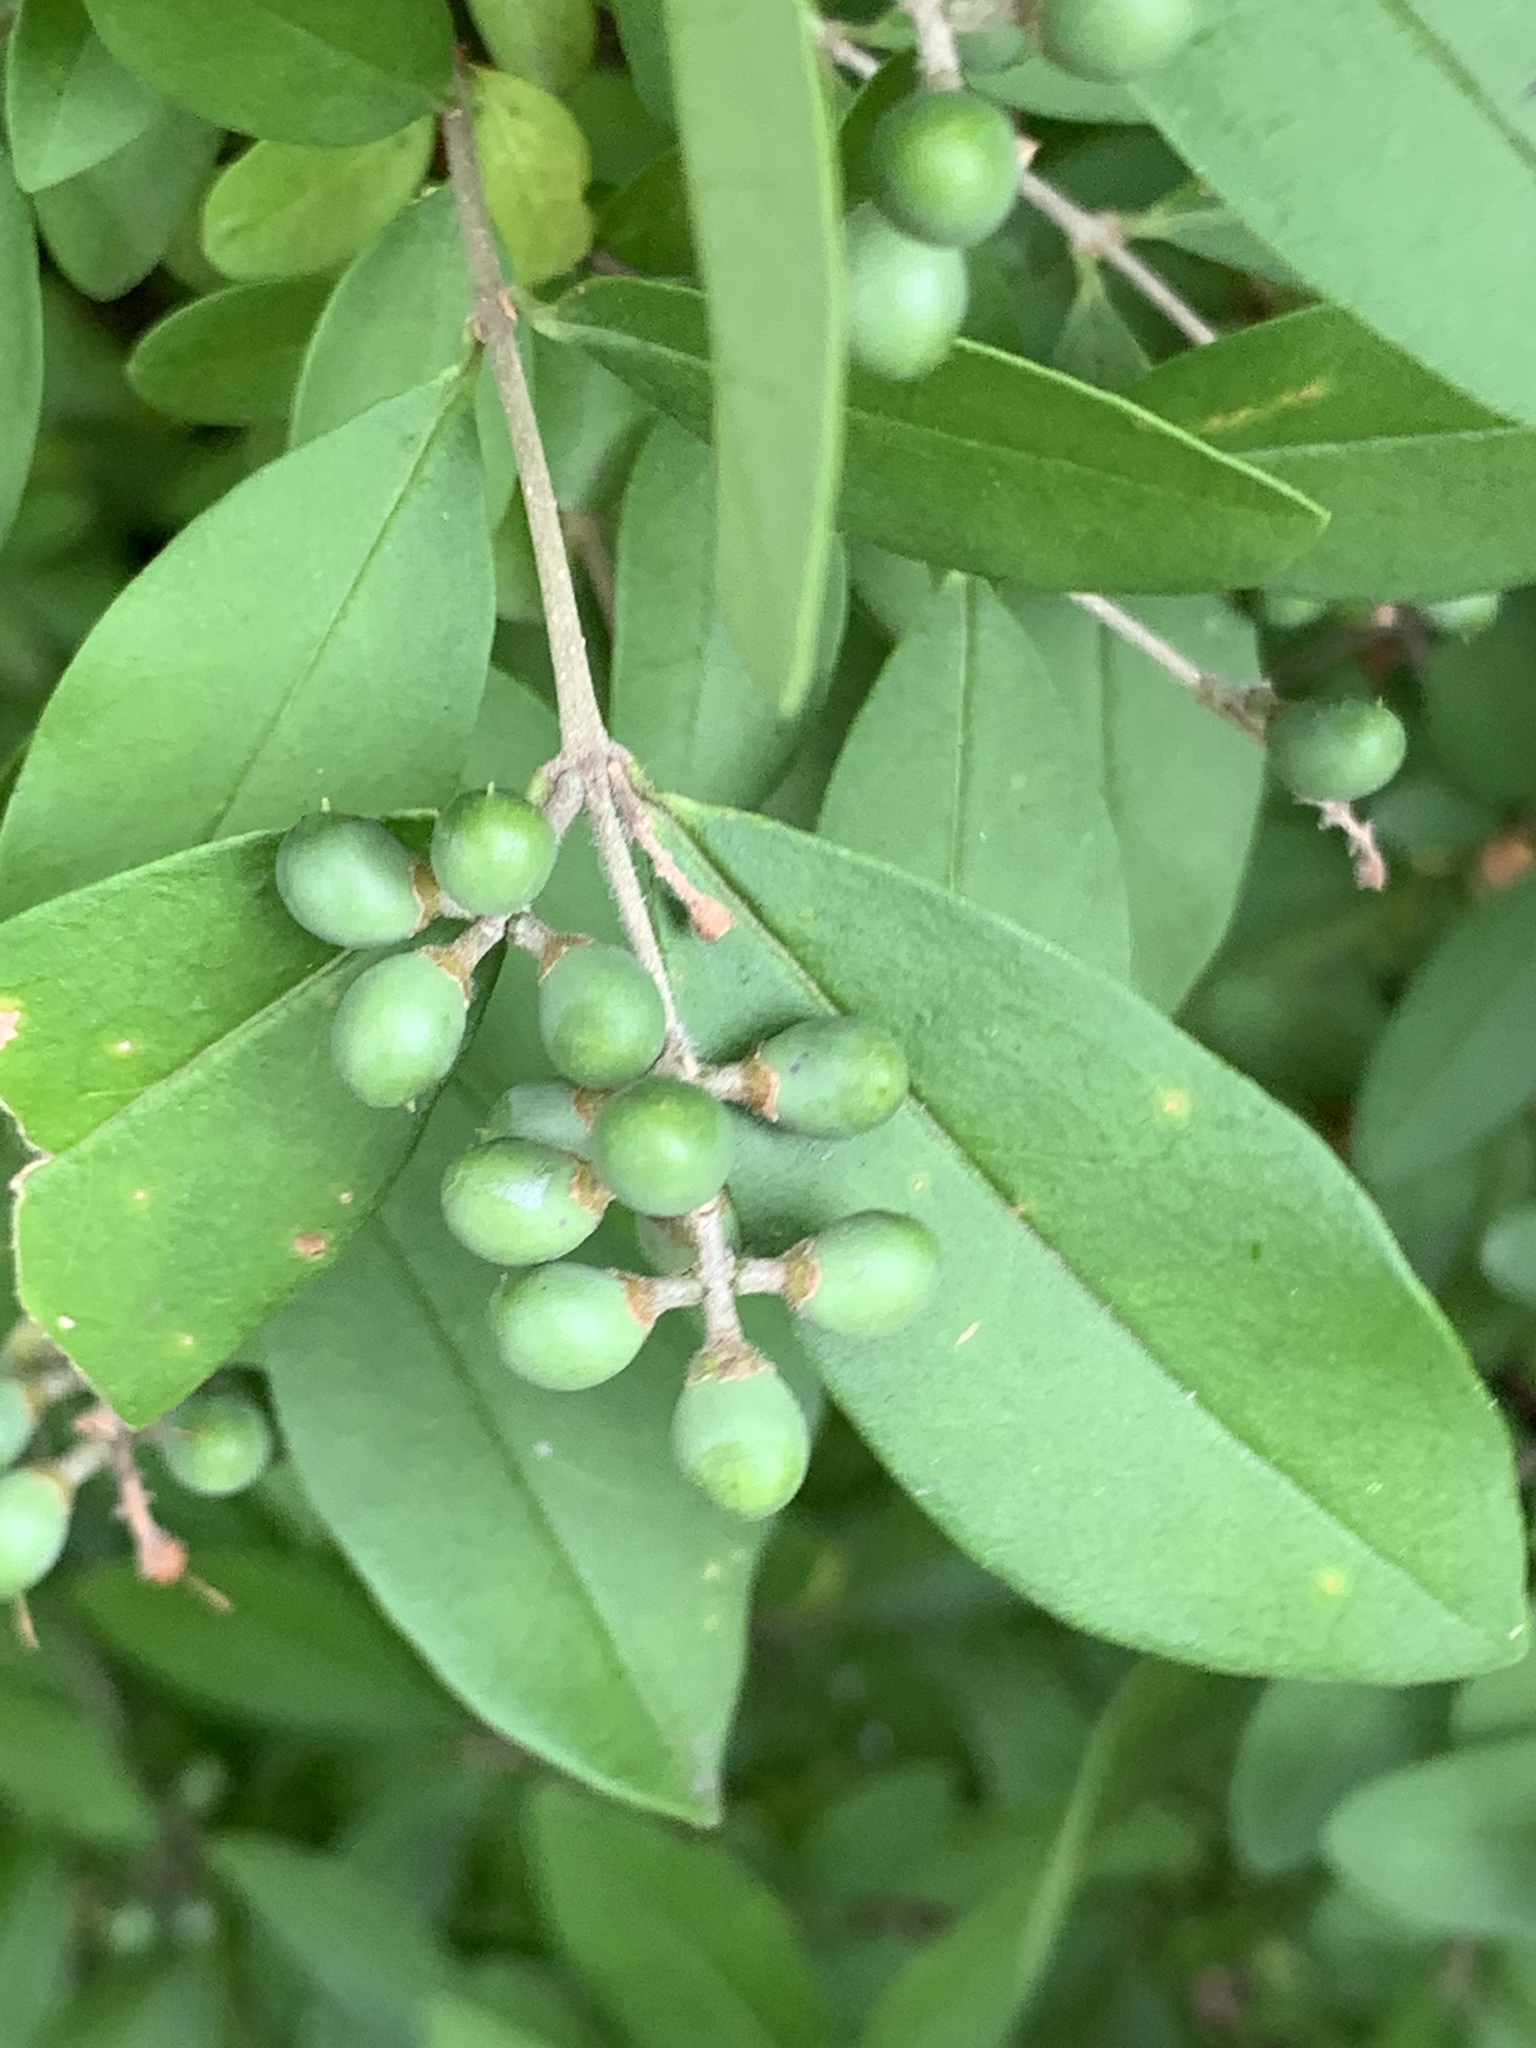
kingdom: Plantae
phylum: Tracheophyta
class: Magnoliopsida
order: Lamiales
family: Oleaceae
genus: Ligustrum
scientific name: Ligustrum obtusifolium
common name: Border privet
